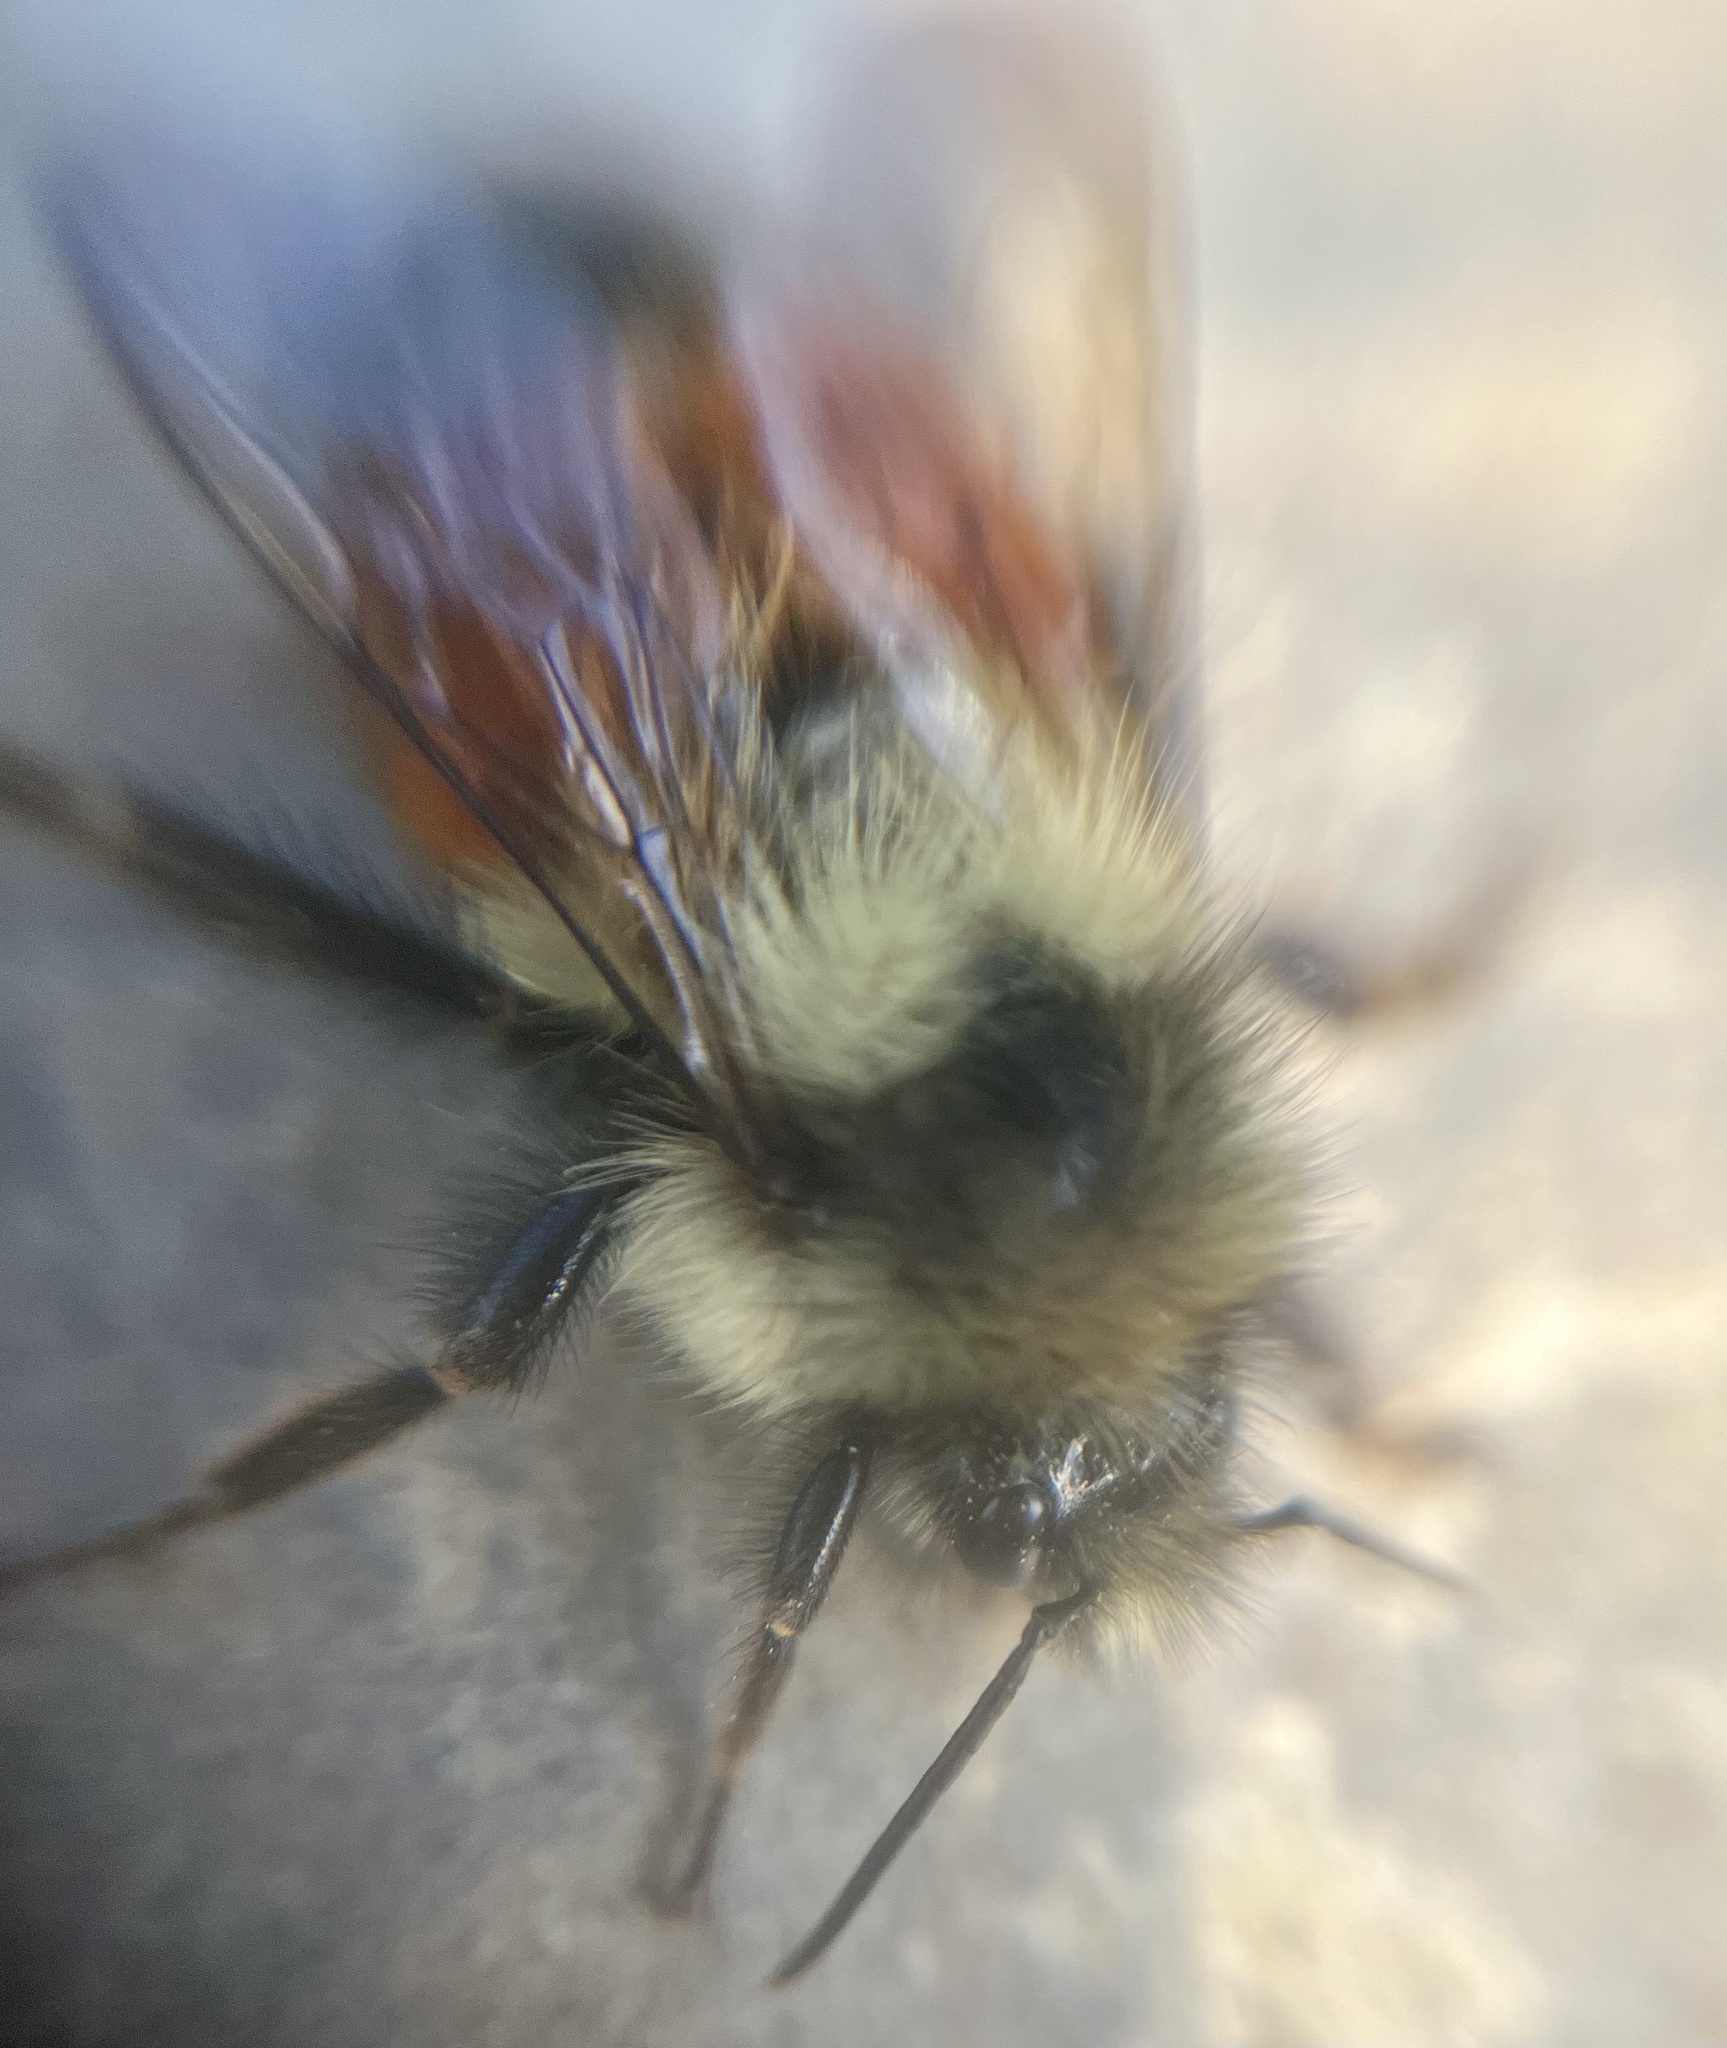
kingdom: Animalia
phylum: Arthropoda
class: Insecta
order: Hymenoptera
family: Apidae
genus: Bombus
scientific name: Bombus melanopygus
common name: Black tail bumble bee
